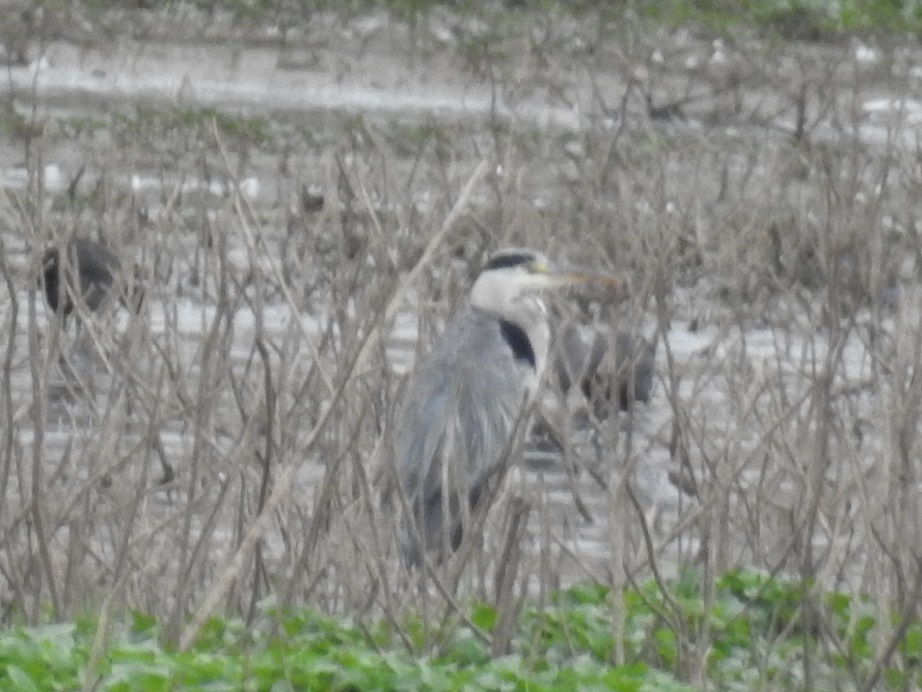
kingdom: Animalia
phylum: Chordata
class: Aves
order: Pelecaniformes
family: Ardeidae
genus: Ardea
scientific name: Ardea cinerea
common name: Grey heron
